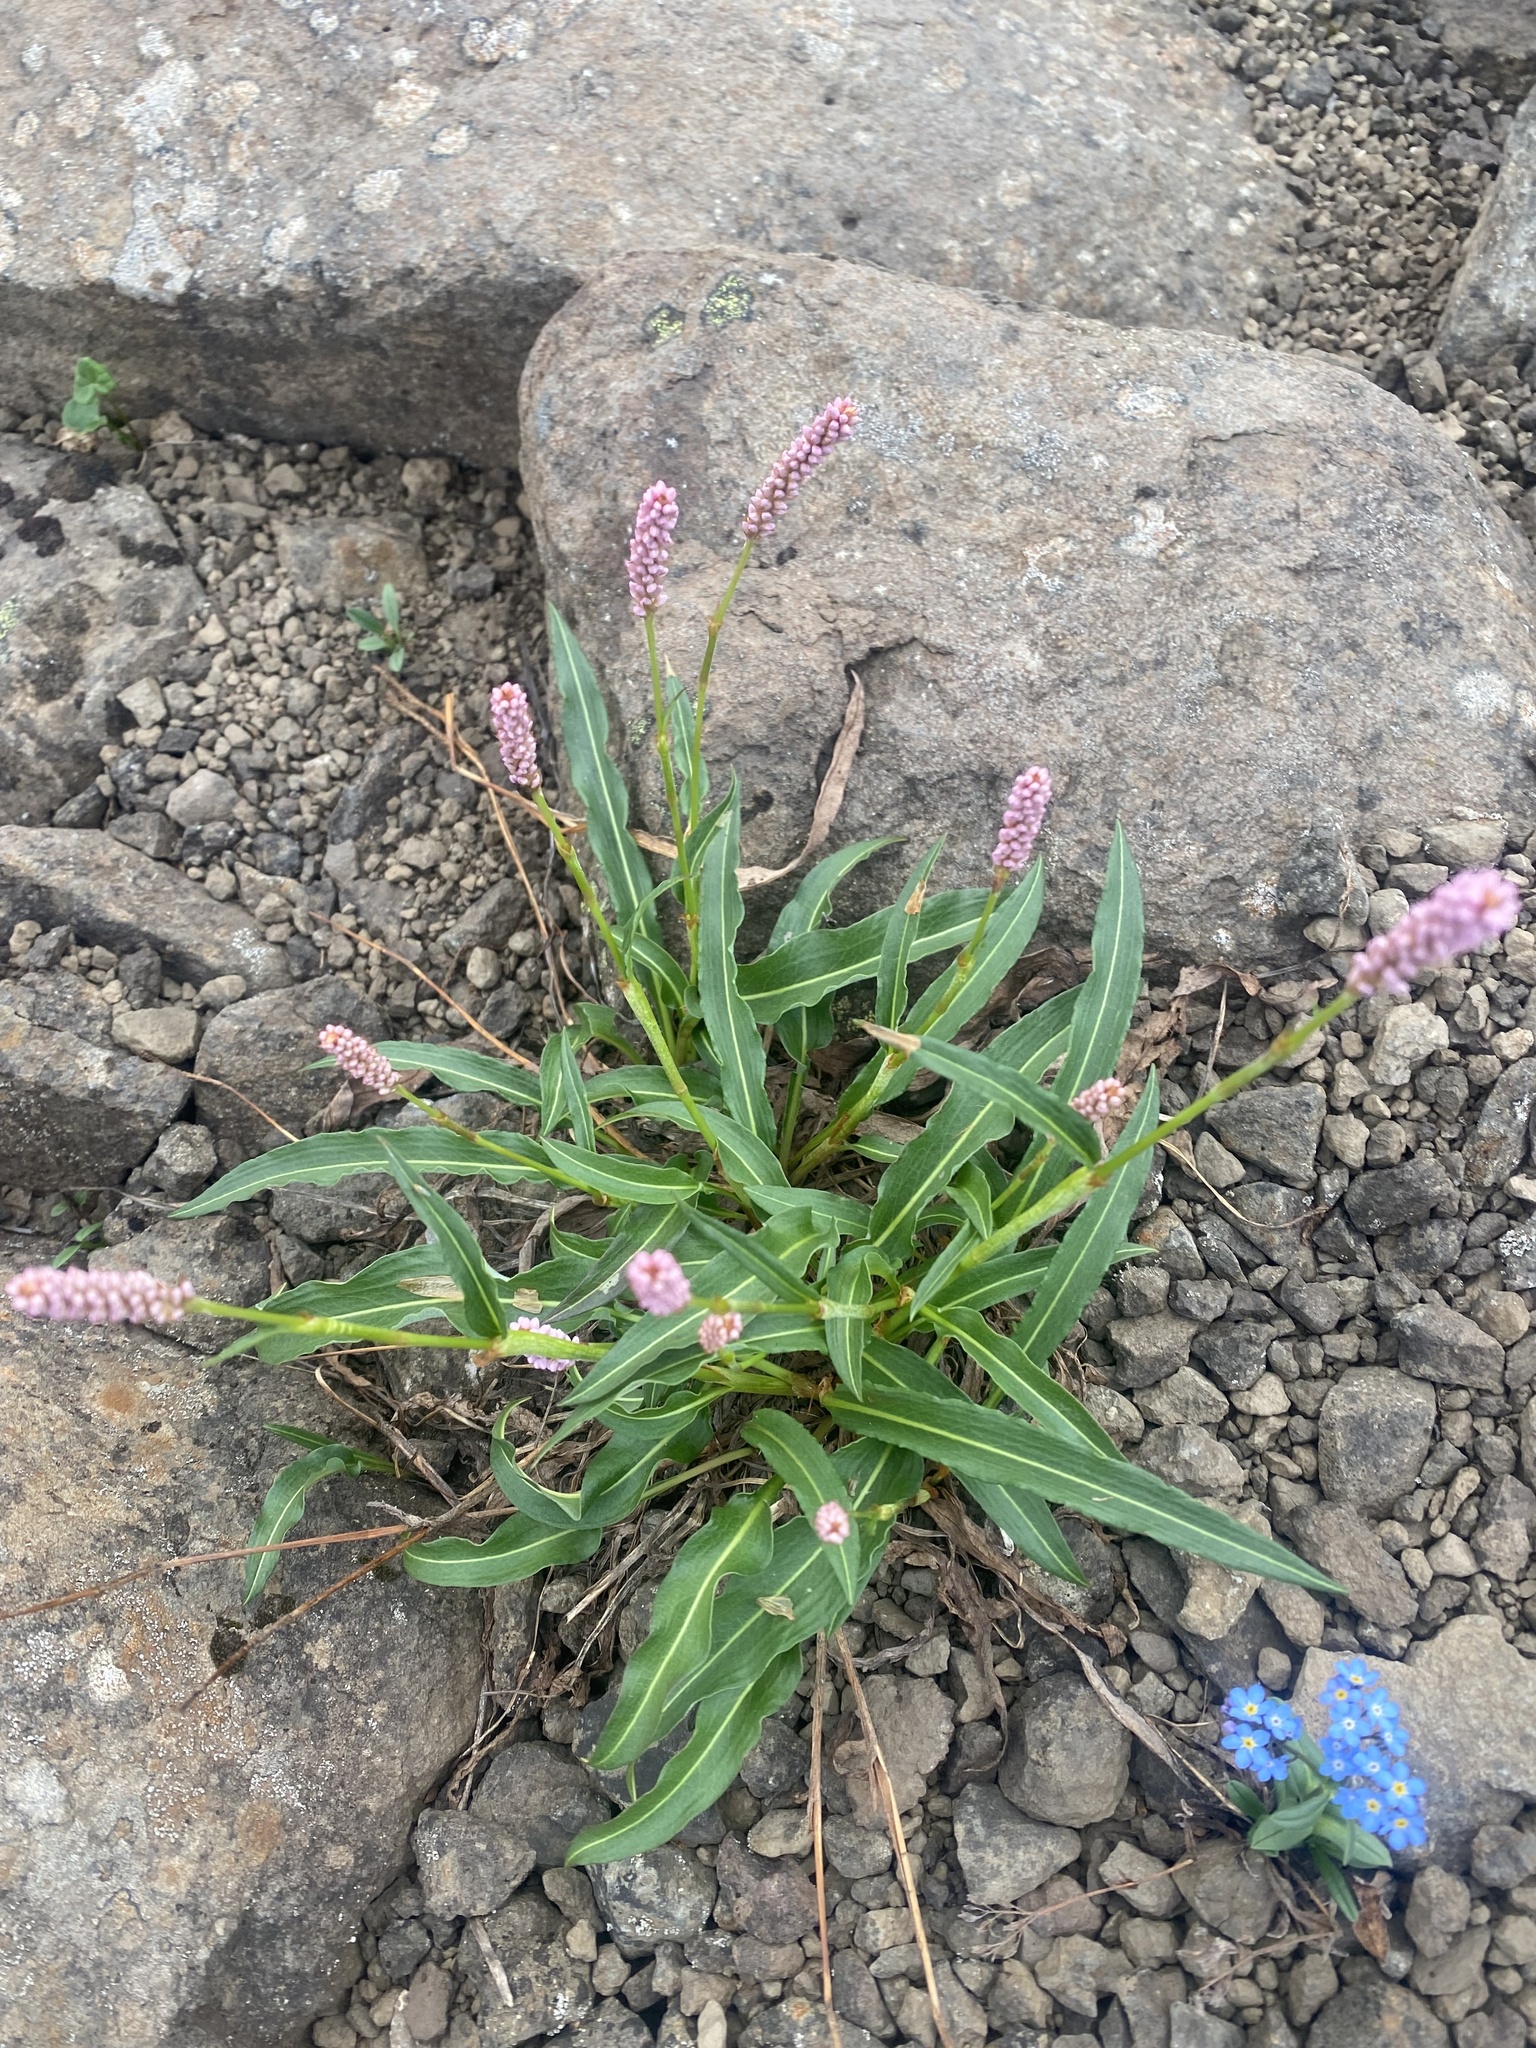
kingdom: Plantae
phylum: Tracheophyta
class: Magnoliopsida
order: Caryophyllales
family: Polygonaceae
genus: Bistorta
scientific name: Bistorta elliptica
